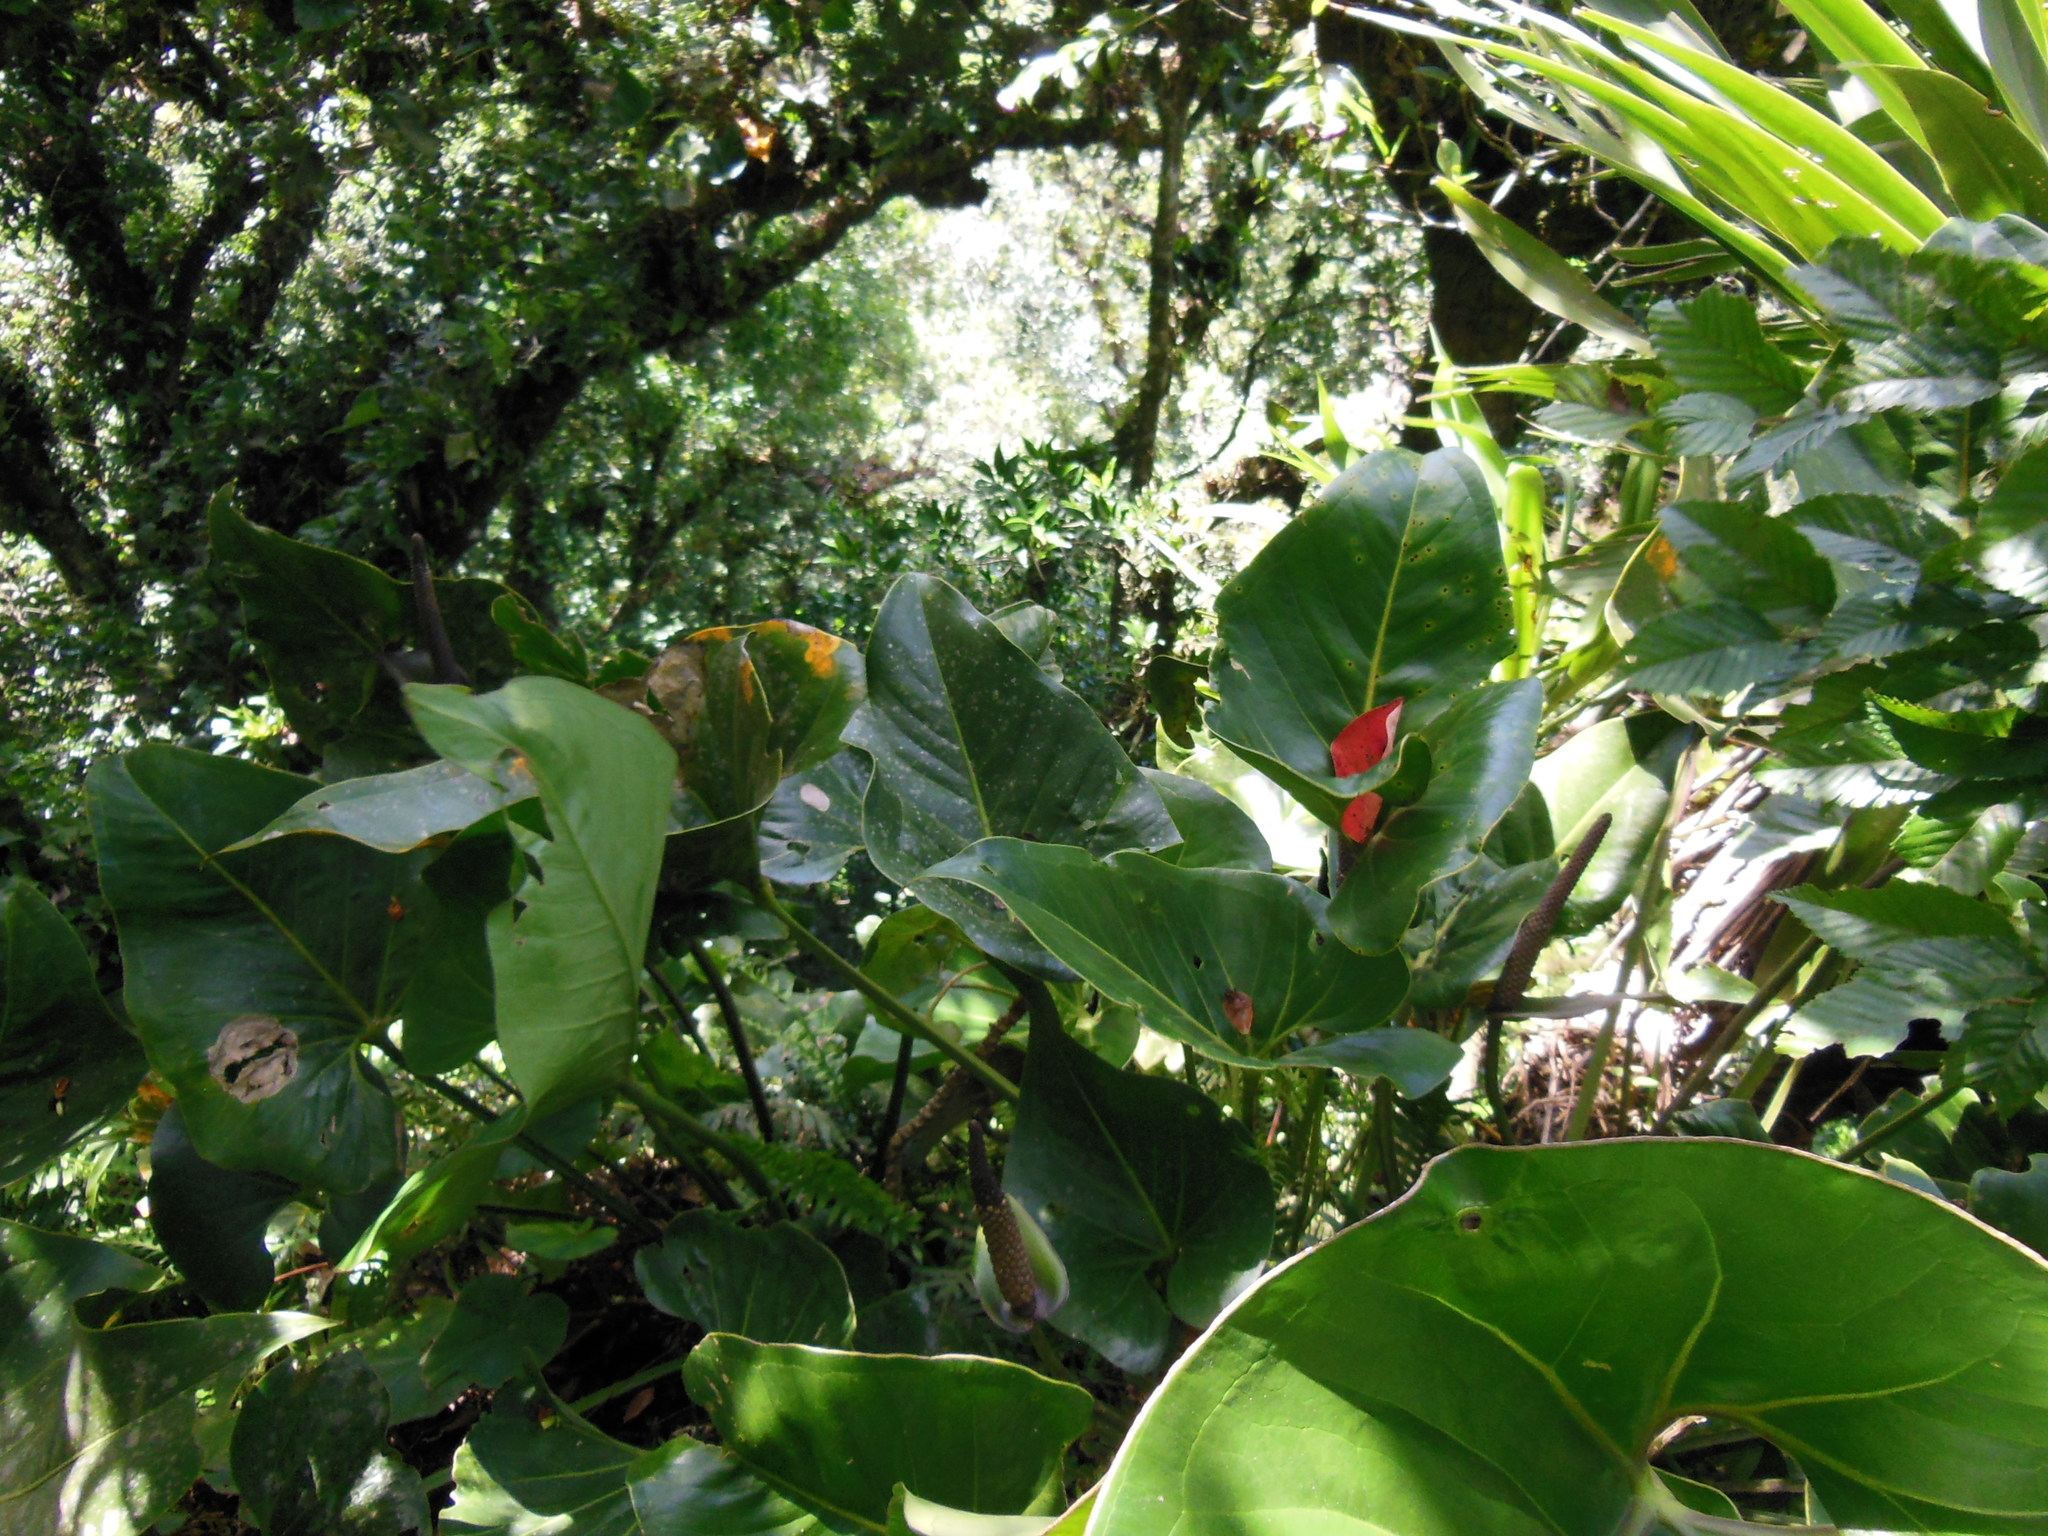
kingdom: Plantae
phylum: Tracheophyta
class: Liliopsida
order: Alismatales
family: Araceae
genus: Anthurium
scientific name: Anthurium cerrobaulense
